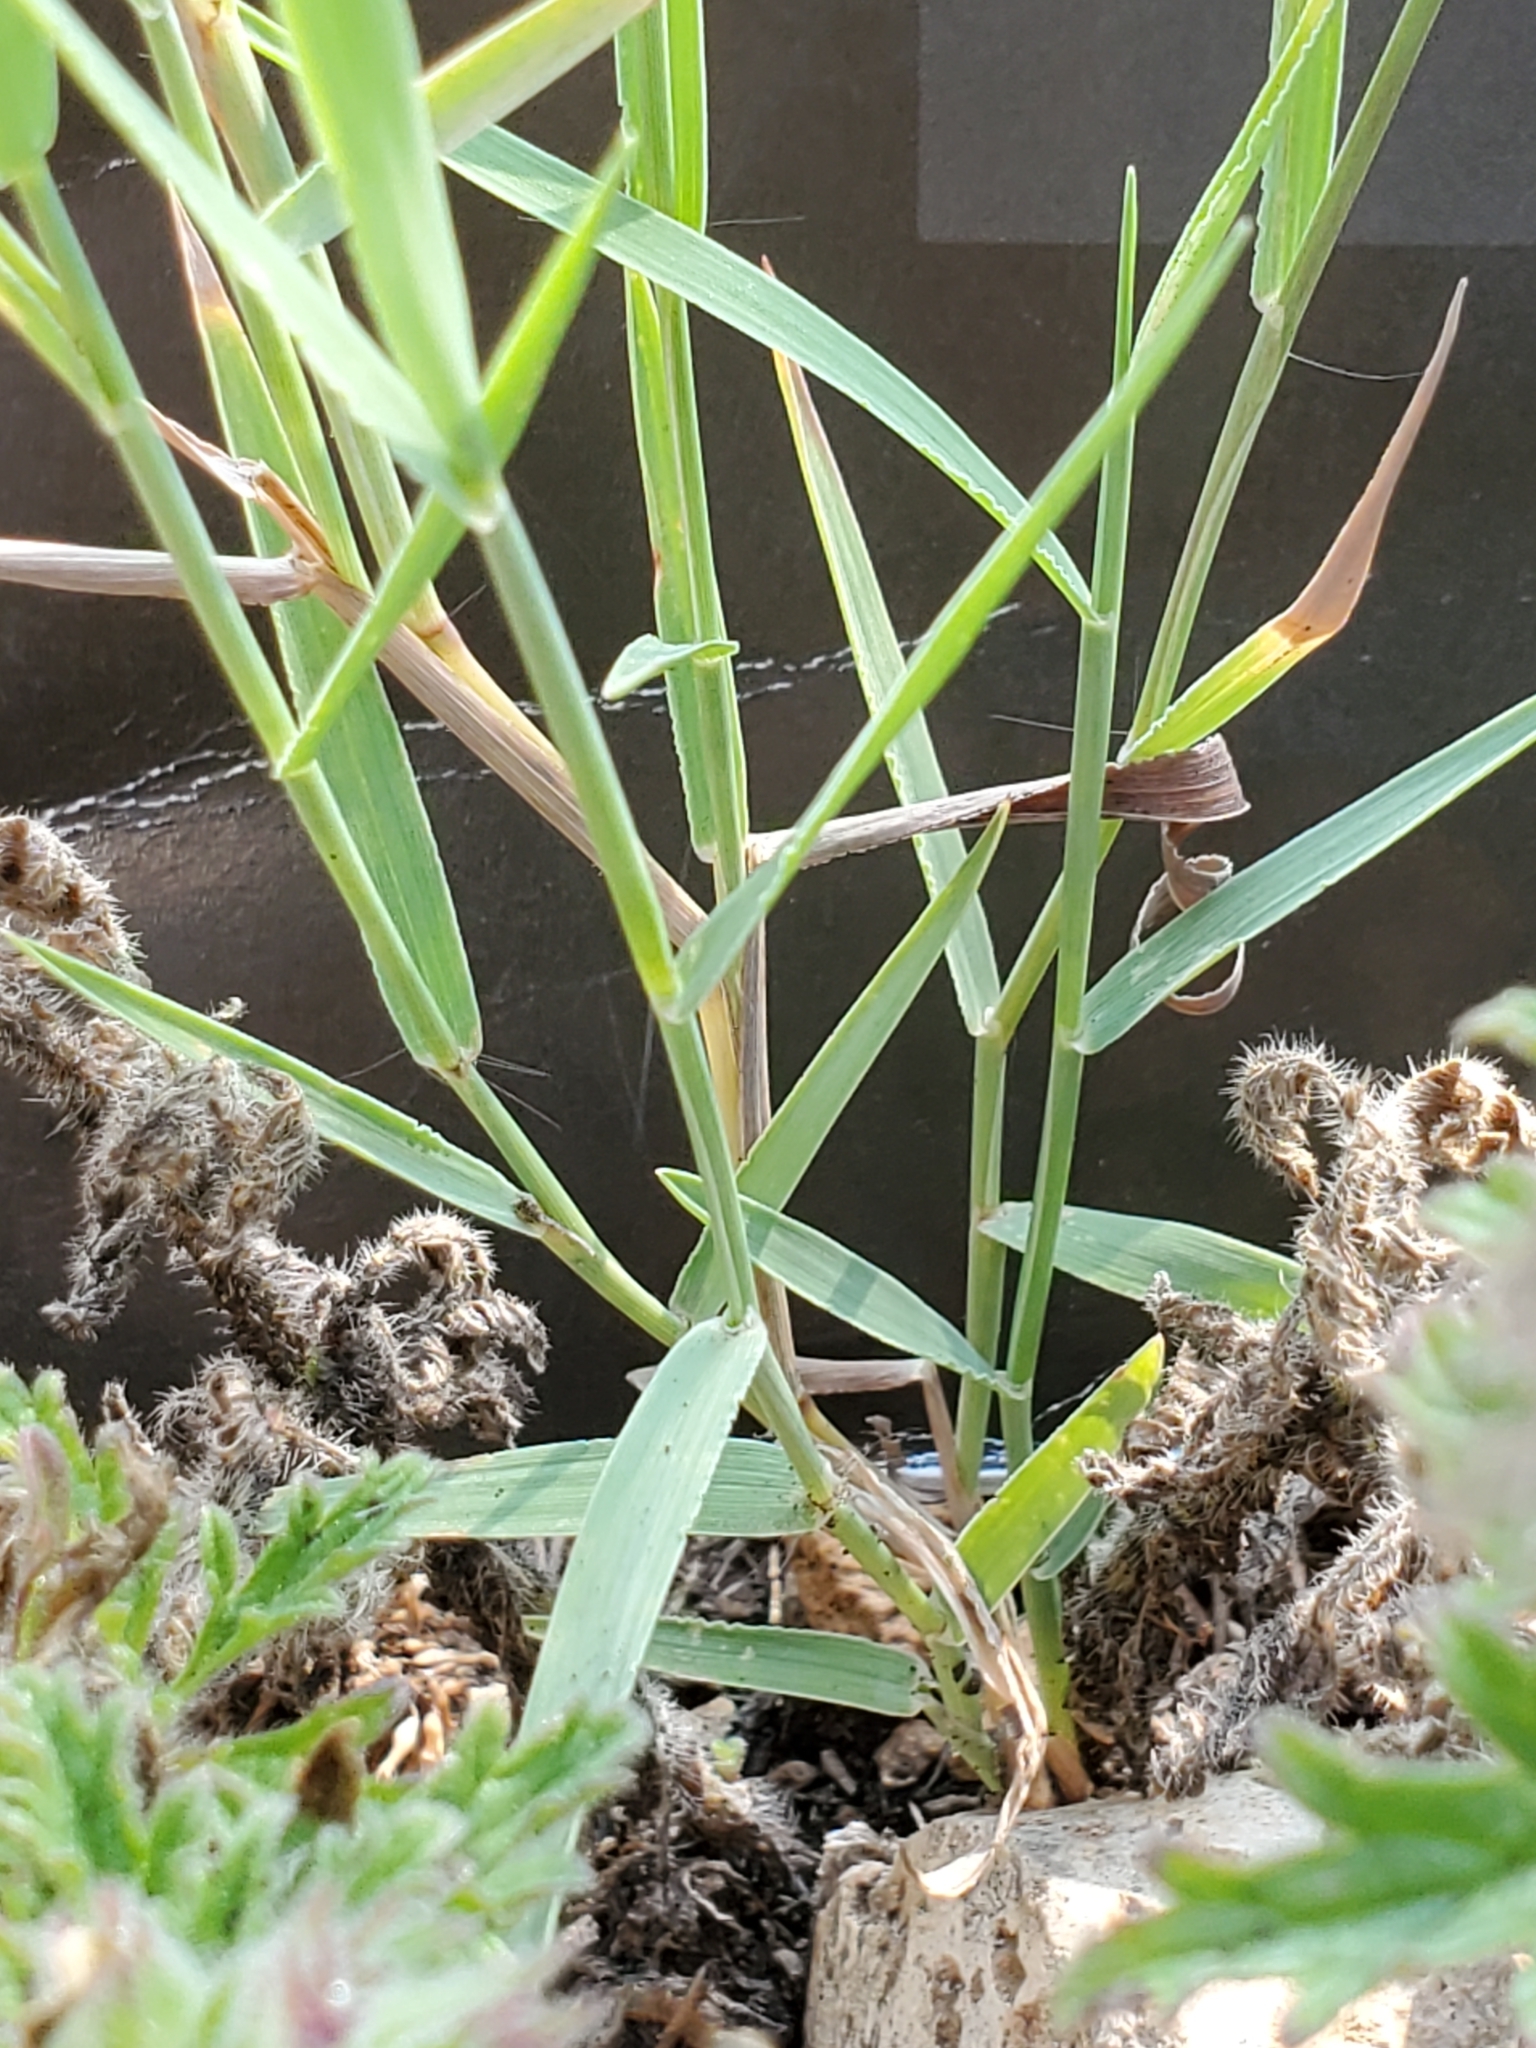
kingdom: Plantae
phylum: Tracheophyta
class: Liliopsida
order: Poales
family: Poaceae
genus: Digitaria
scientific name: Digitaria cognata
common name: Fall witchgrass
